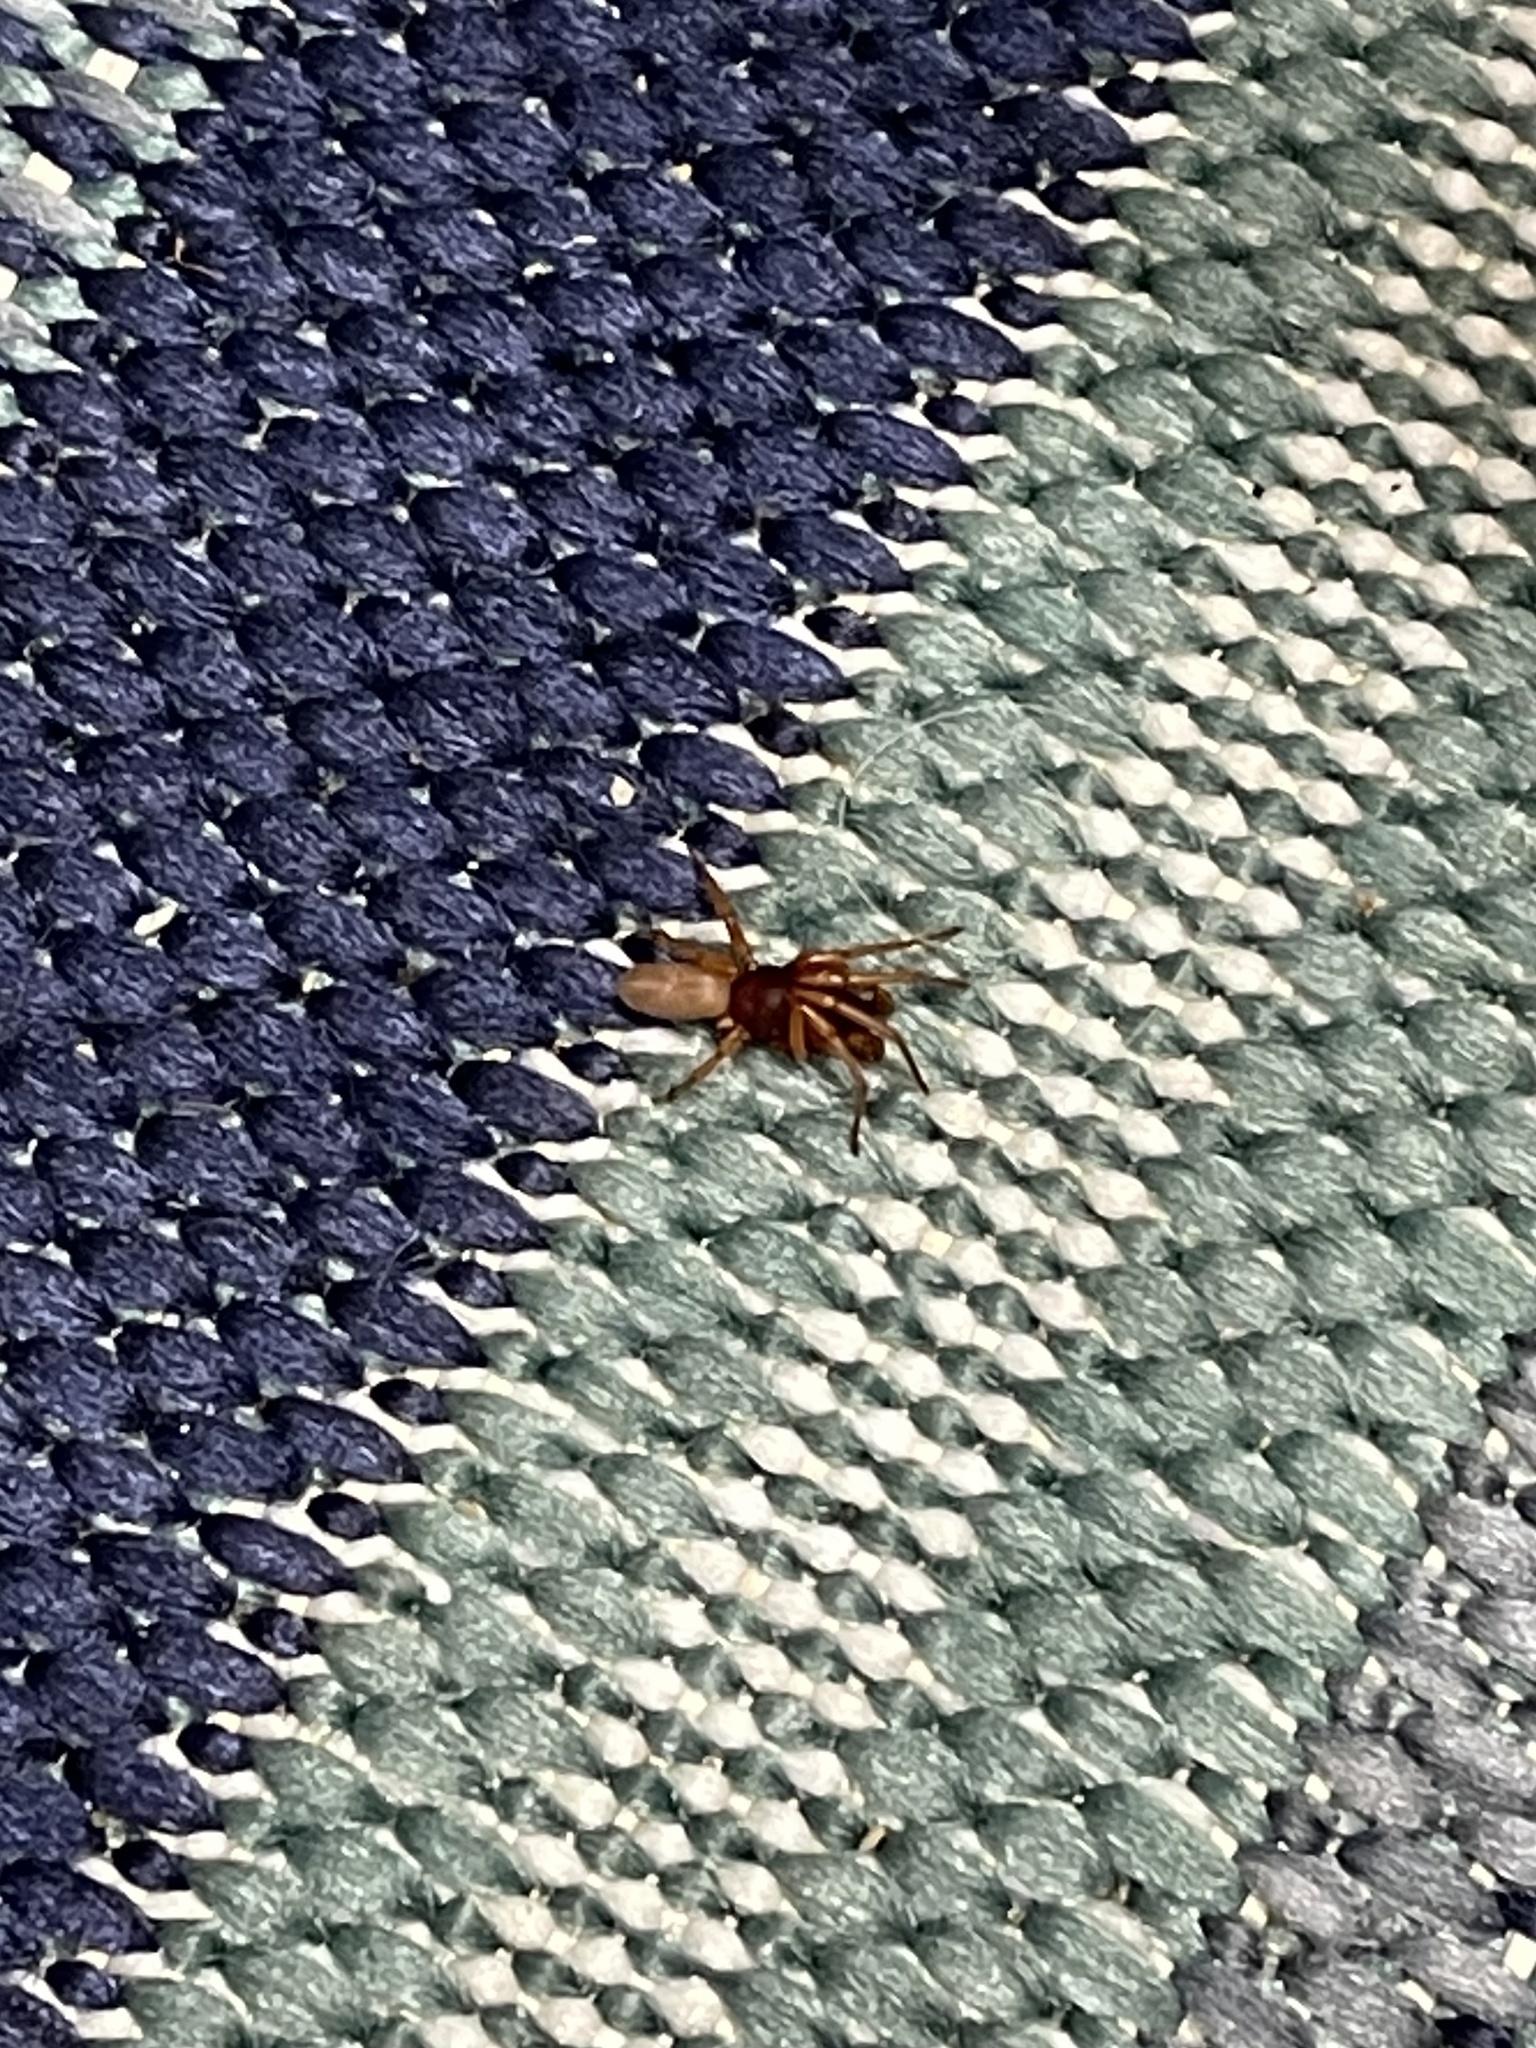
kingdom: Animalia
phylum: Arthropoda
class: Arachnida
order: Araneae
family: Dysderidae
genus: Dysdera
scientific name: Dysdera crocata
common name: Woodlouse spider
